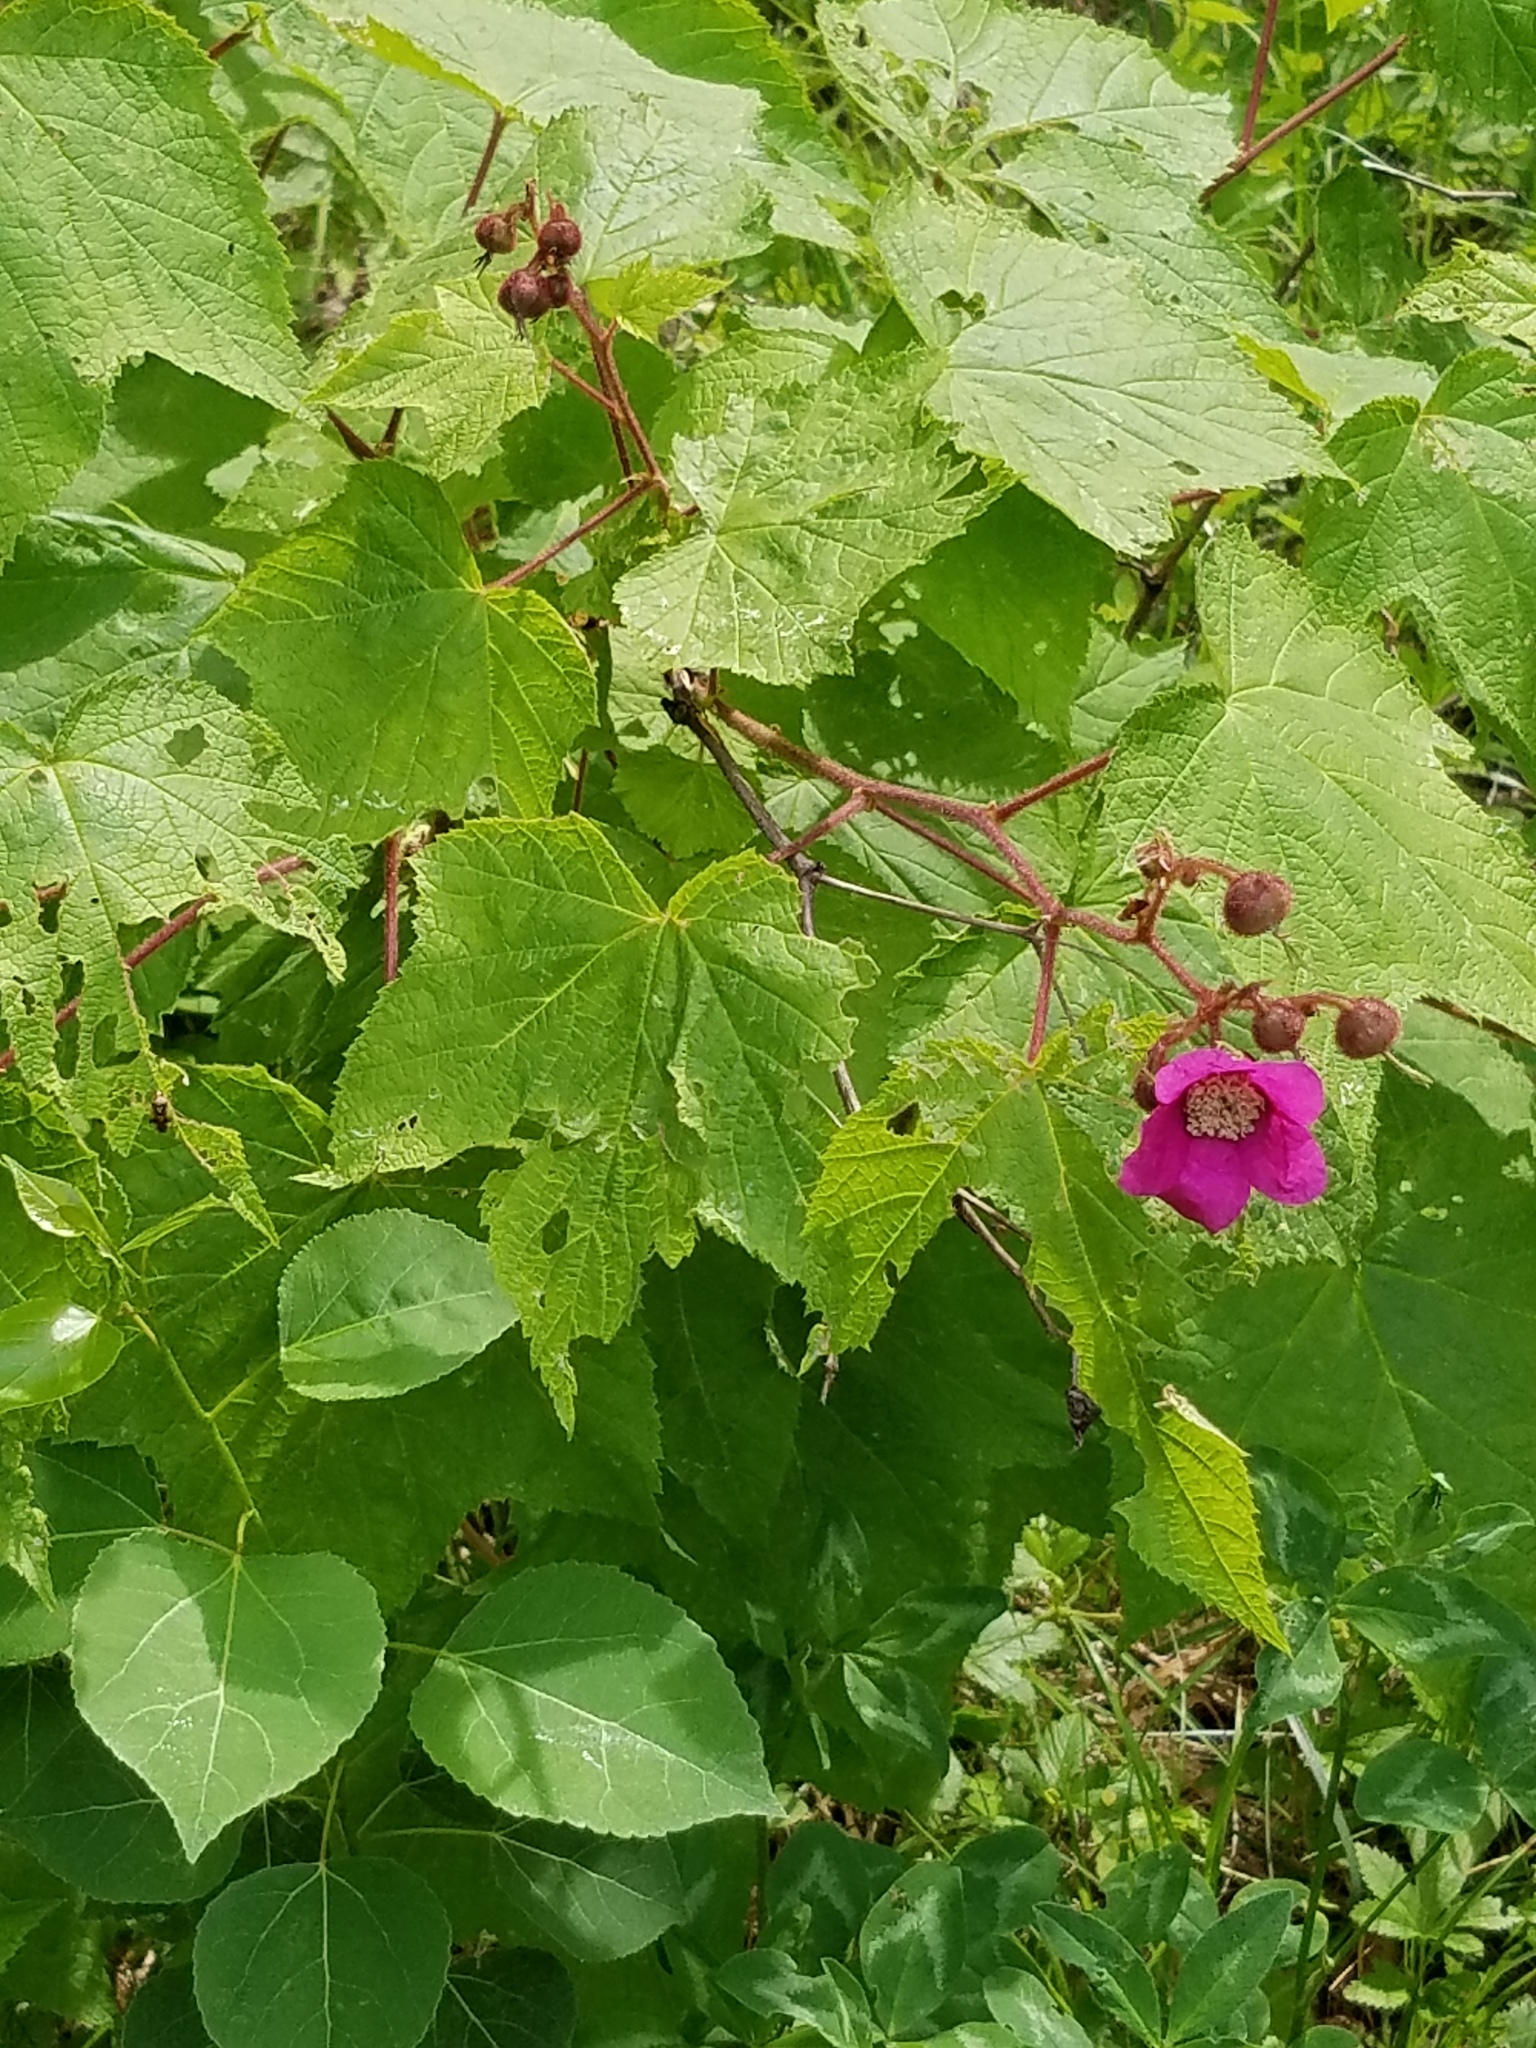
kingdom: Plantae
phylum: Tracheophyta
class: Magnoliopsida
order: Rosales
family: Rosaceae
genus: Rubus
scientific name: Rubus odoratus
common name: Purple-flowered raspberry
